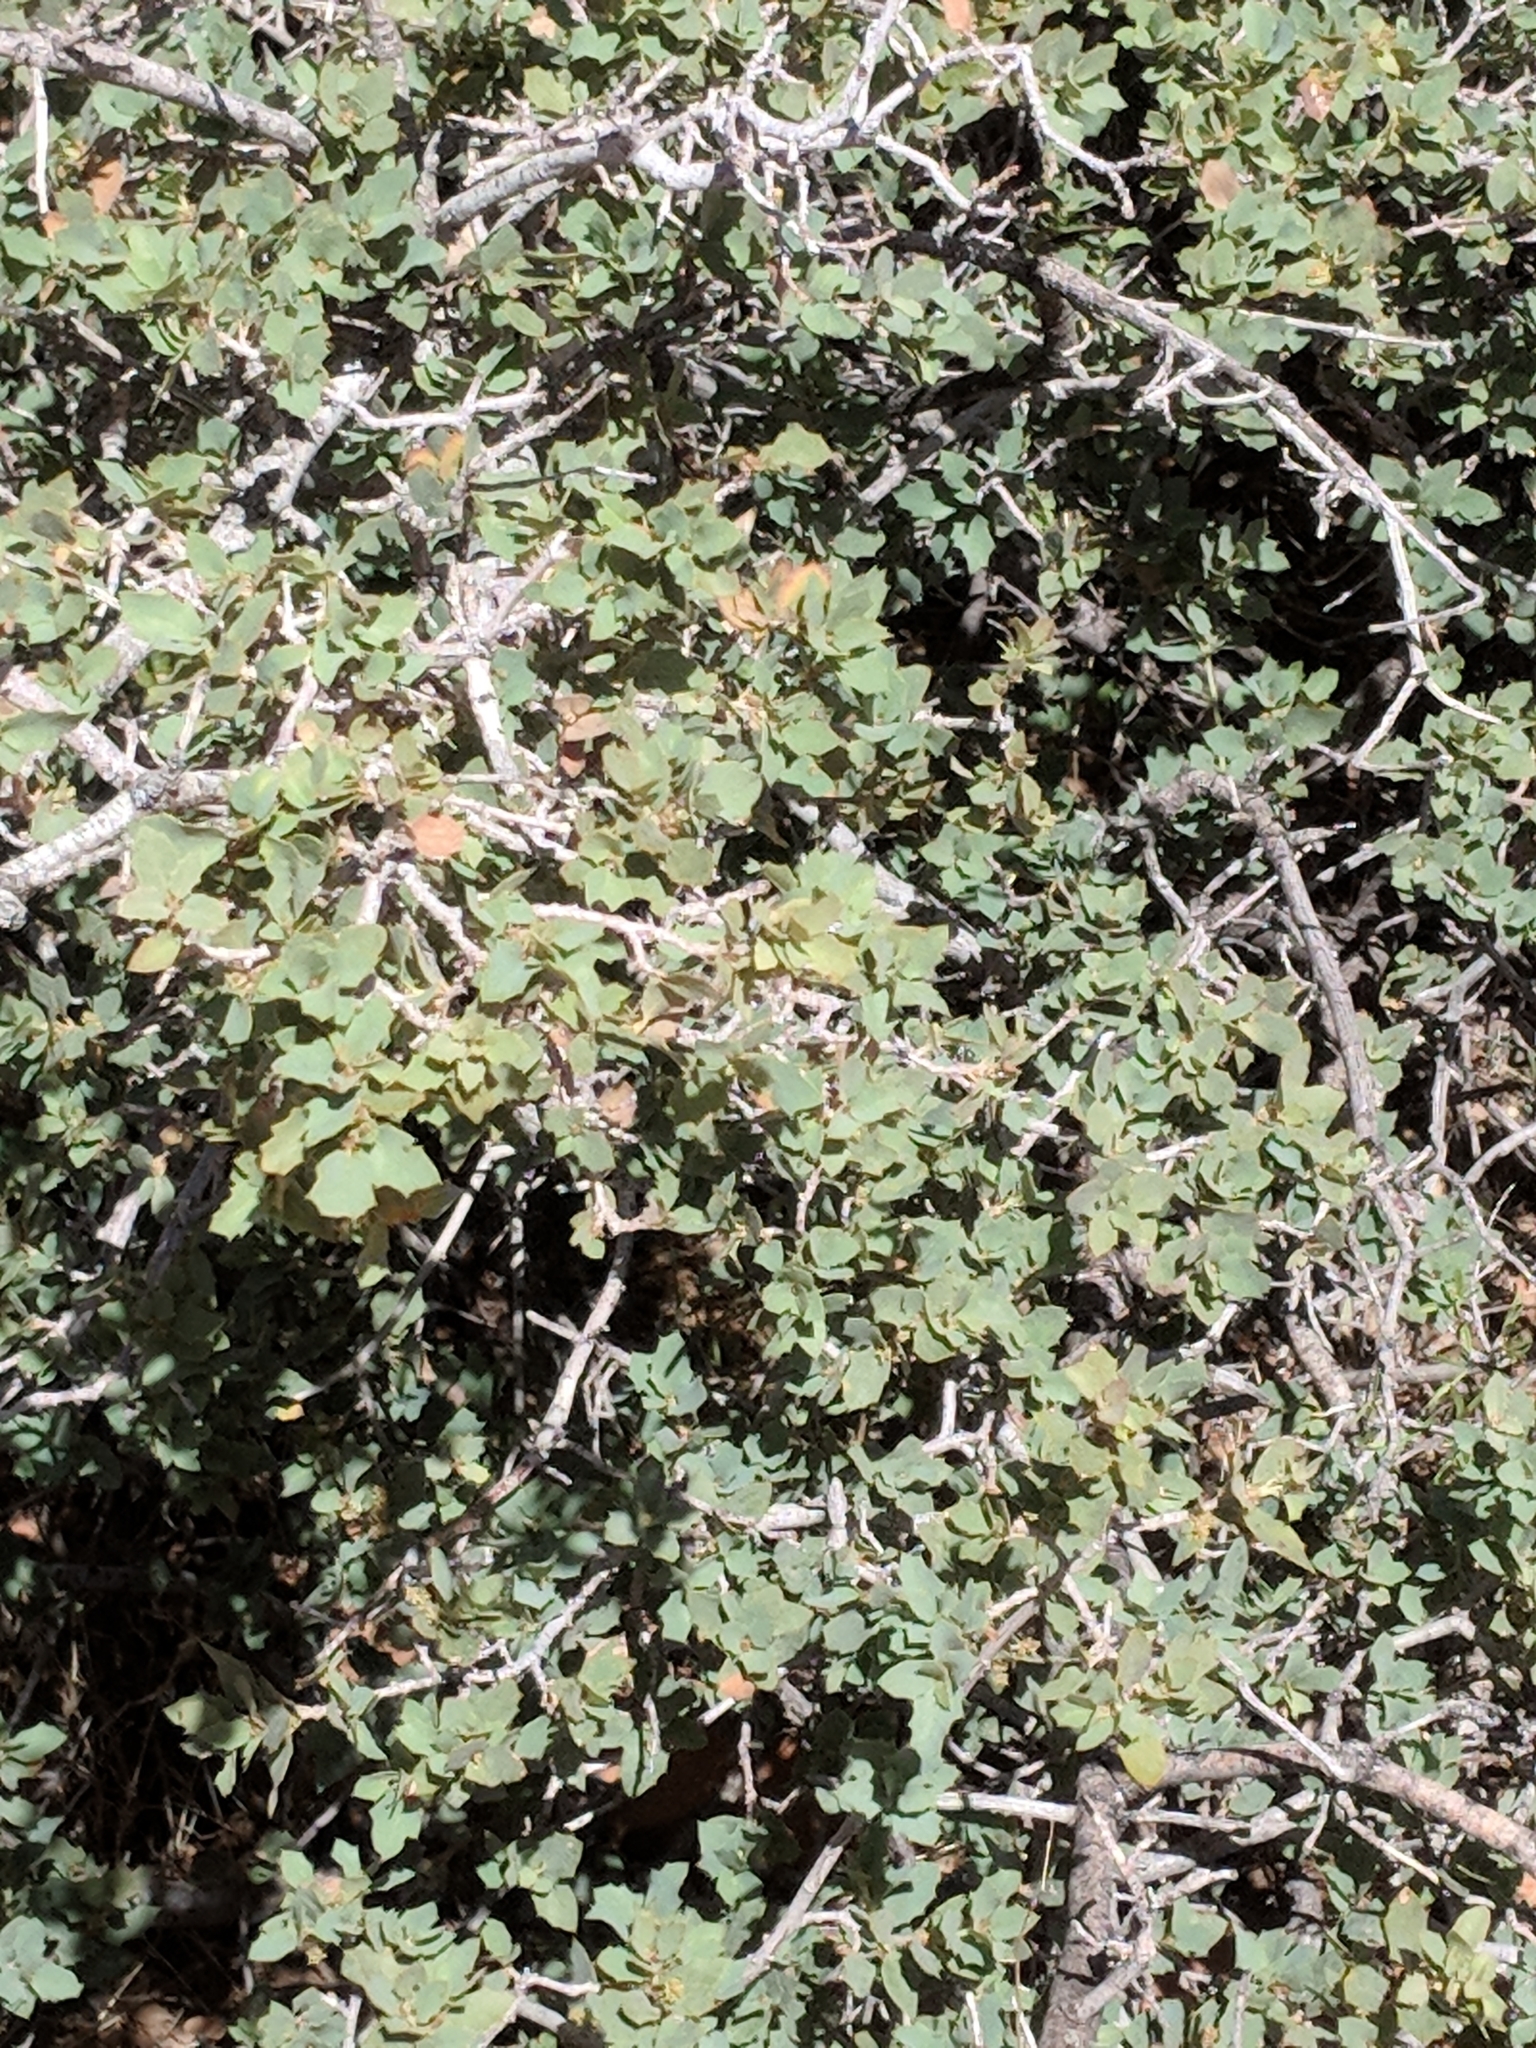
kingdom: Plantae
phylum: Tracheophyta
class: Magnoliopsida
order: Fagales
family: Fagaceae
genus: Quercus
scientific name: Quercus turbinella
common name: Sonoran scrub oak
